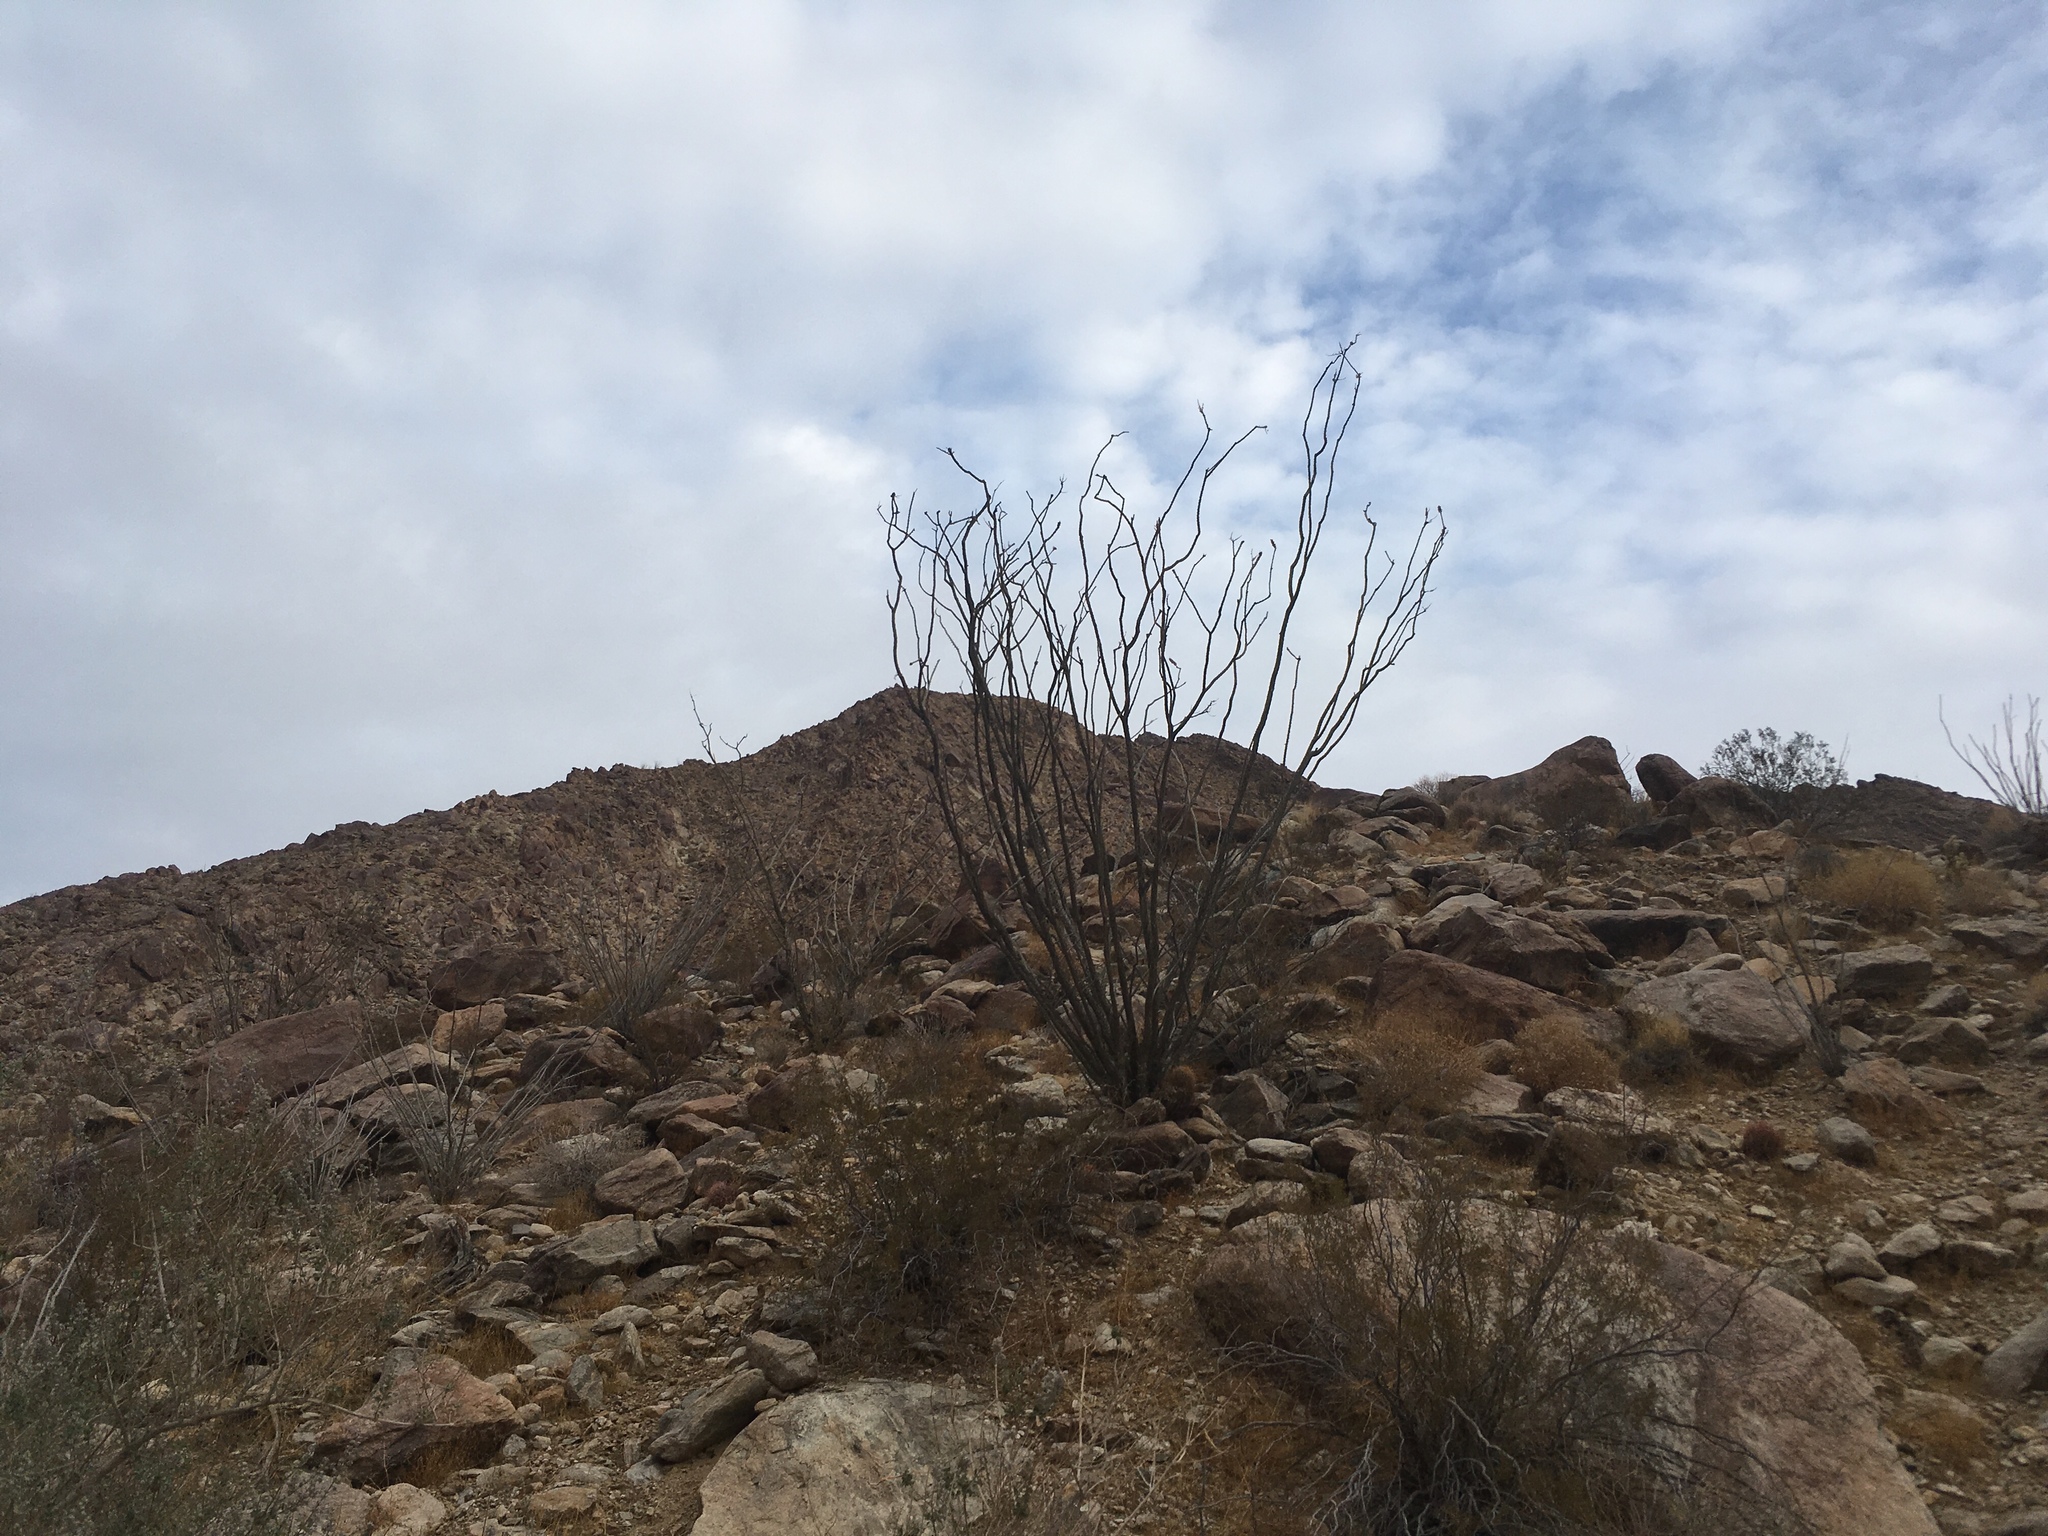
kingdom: Plantae
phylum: Tracheophyta
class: Magnoliopsida
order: Ericales
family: Fouquieriaceae
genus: Fouquieria
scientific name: Fouquieria splendens
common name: Vine-cactus
